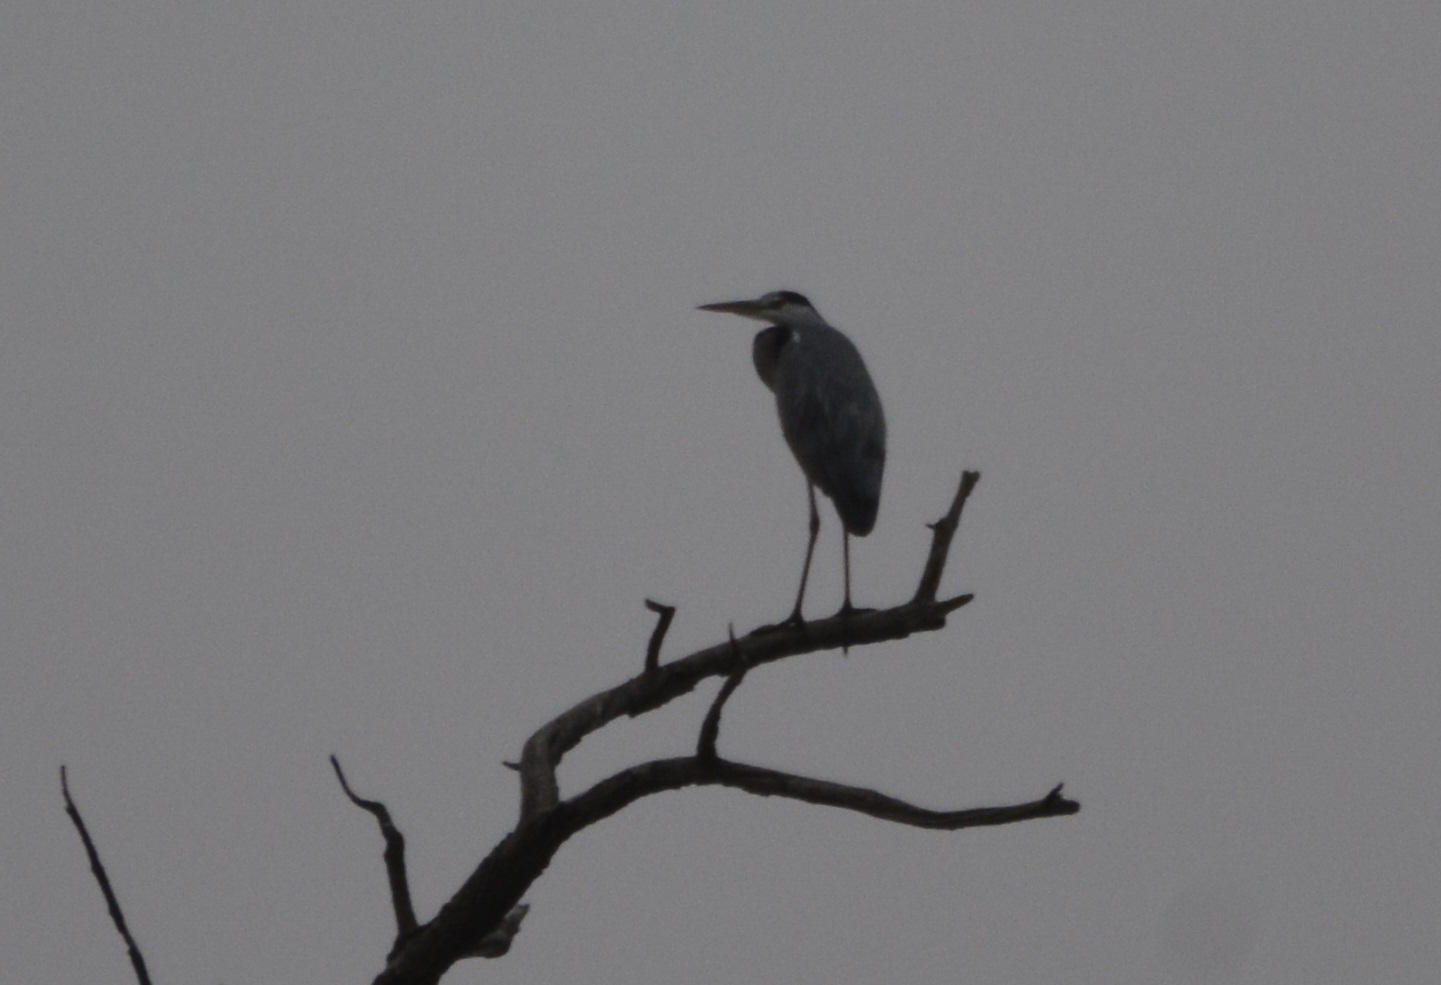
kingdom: Animalia
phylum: Chordata
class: Aves
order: Pelecaniformes
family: Ardeidae
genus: Ardea
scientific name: Ardea cinerea
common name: Grey heron
